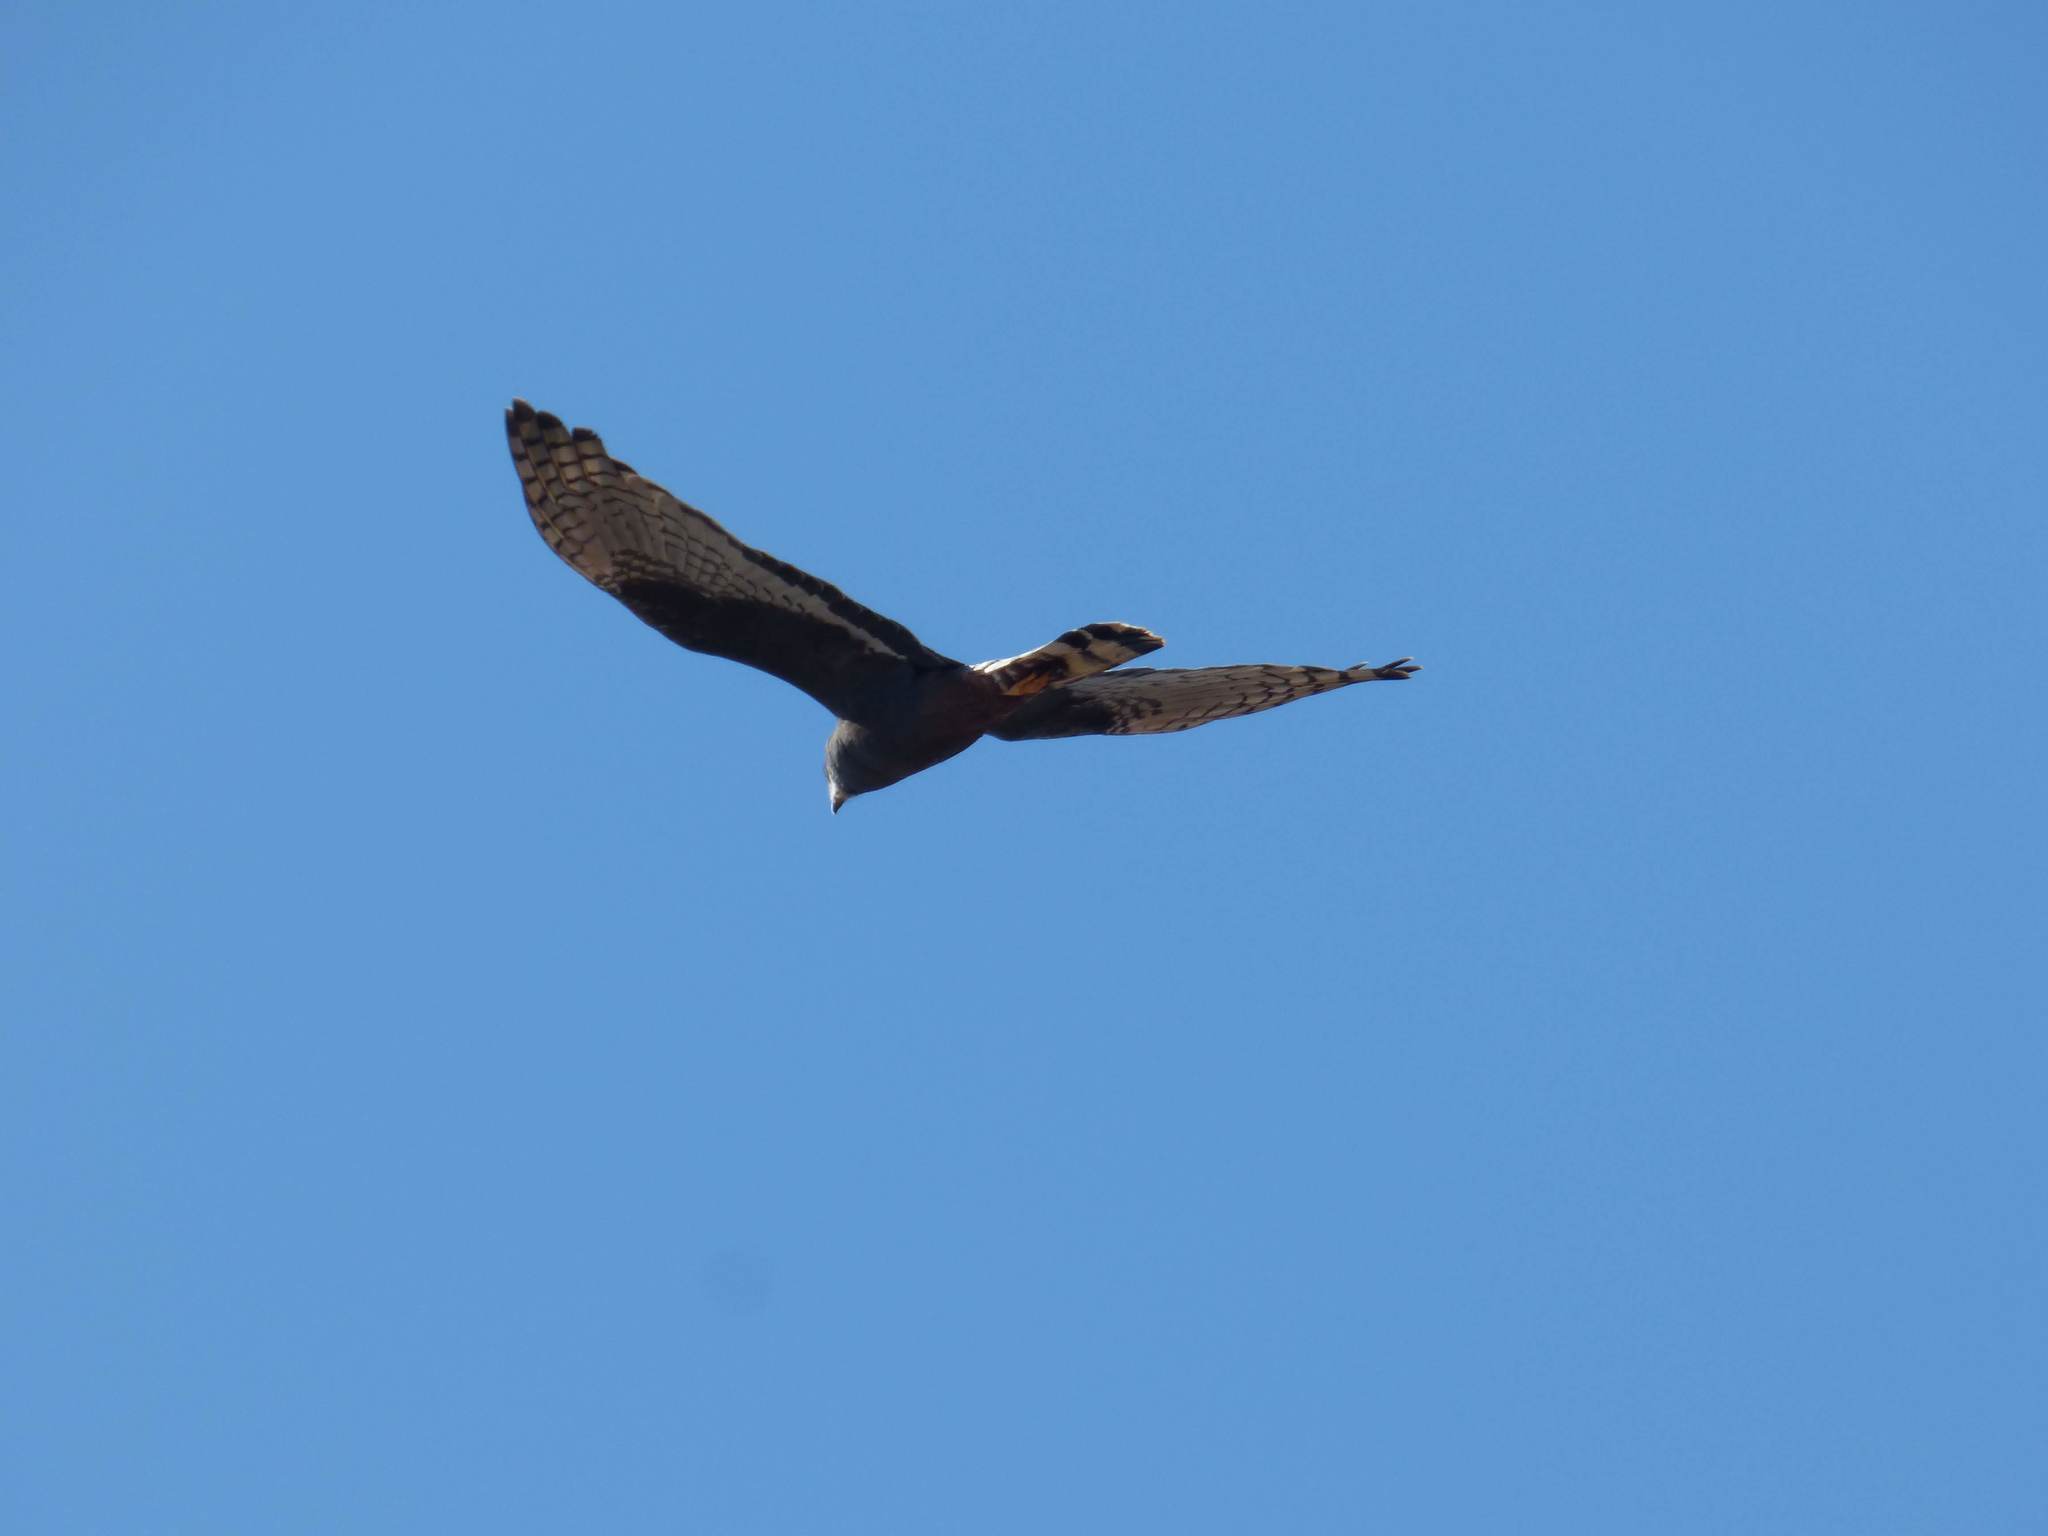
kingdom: Animalia
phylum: Chordata
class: Aves
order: Accipitriformes
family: Accipitridae
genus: Circus
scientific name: Circus buffoni
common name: Long-winged harrier
